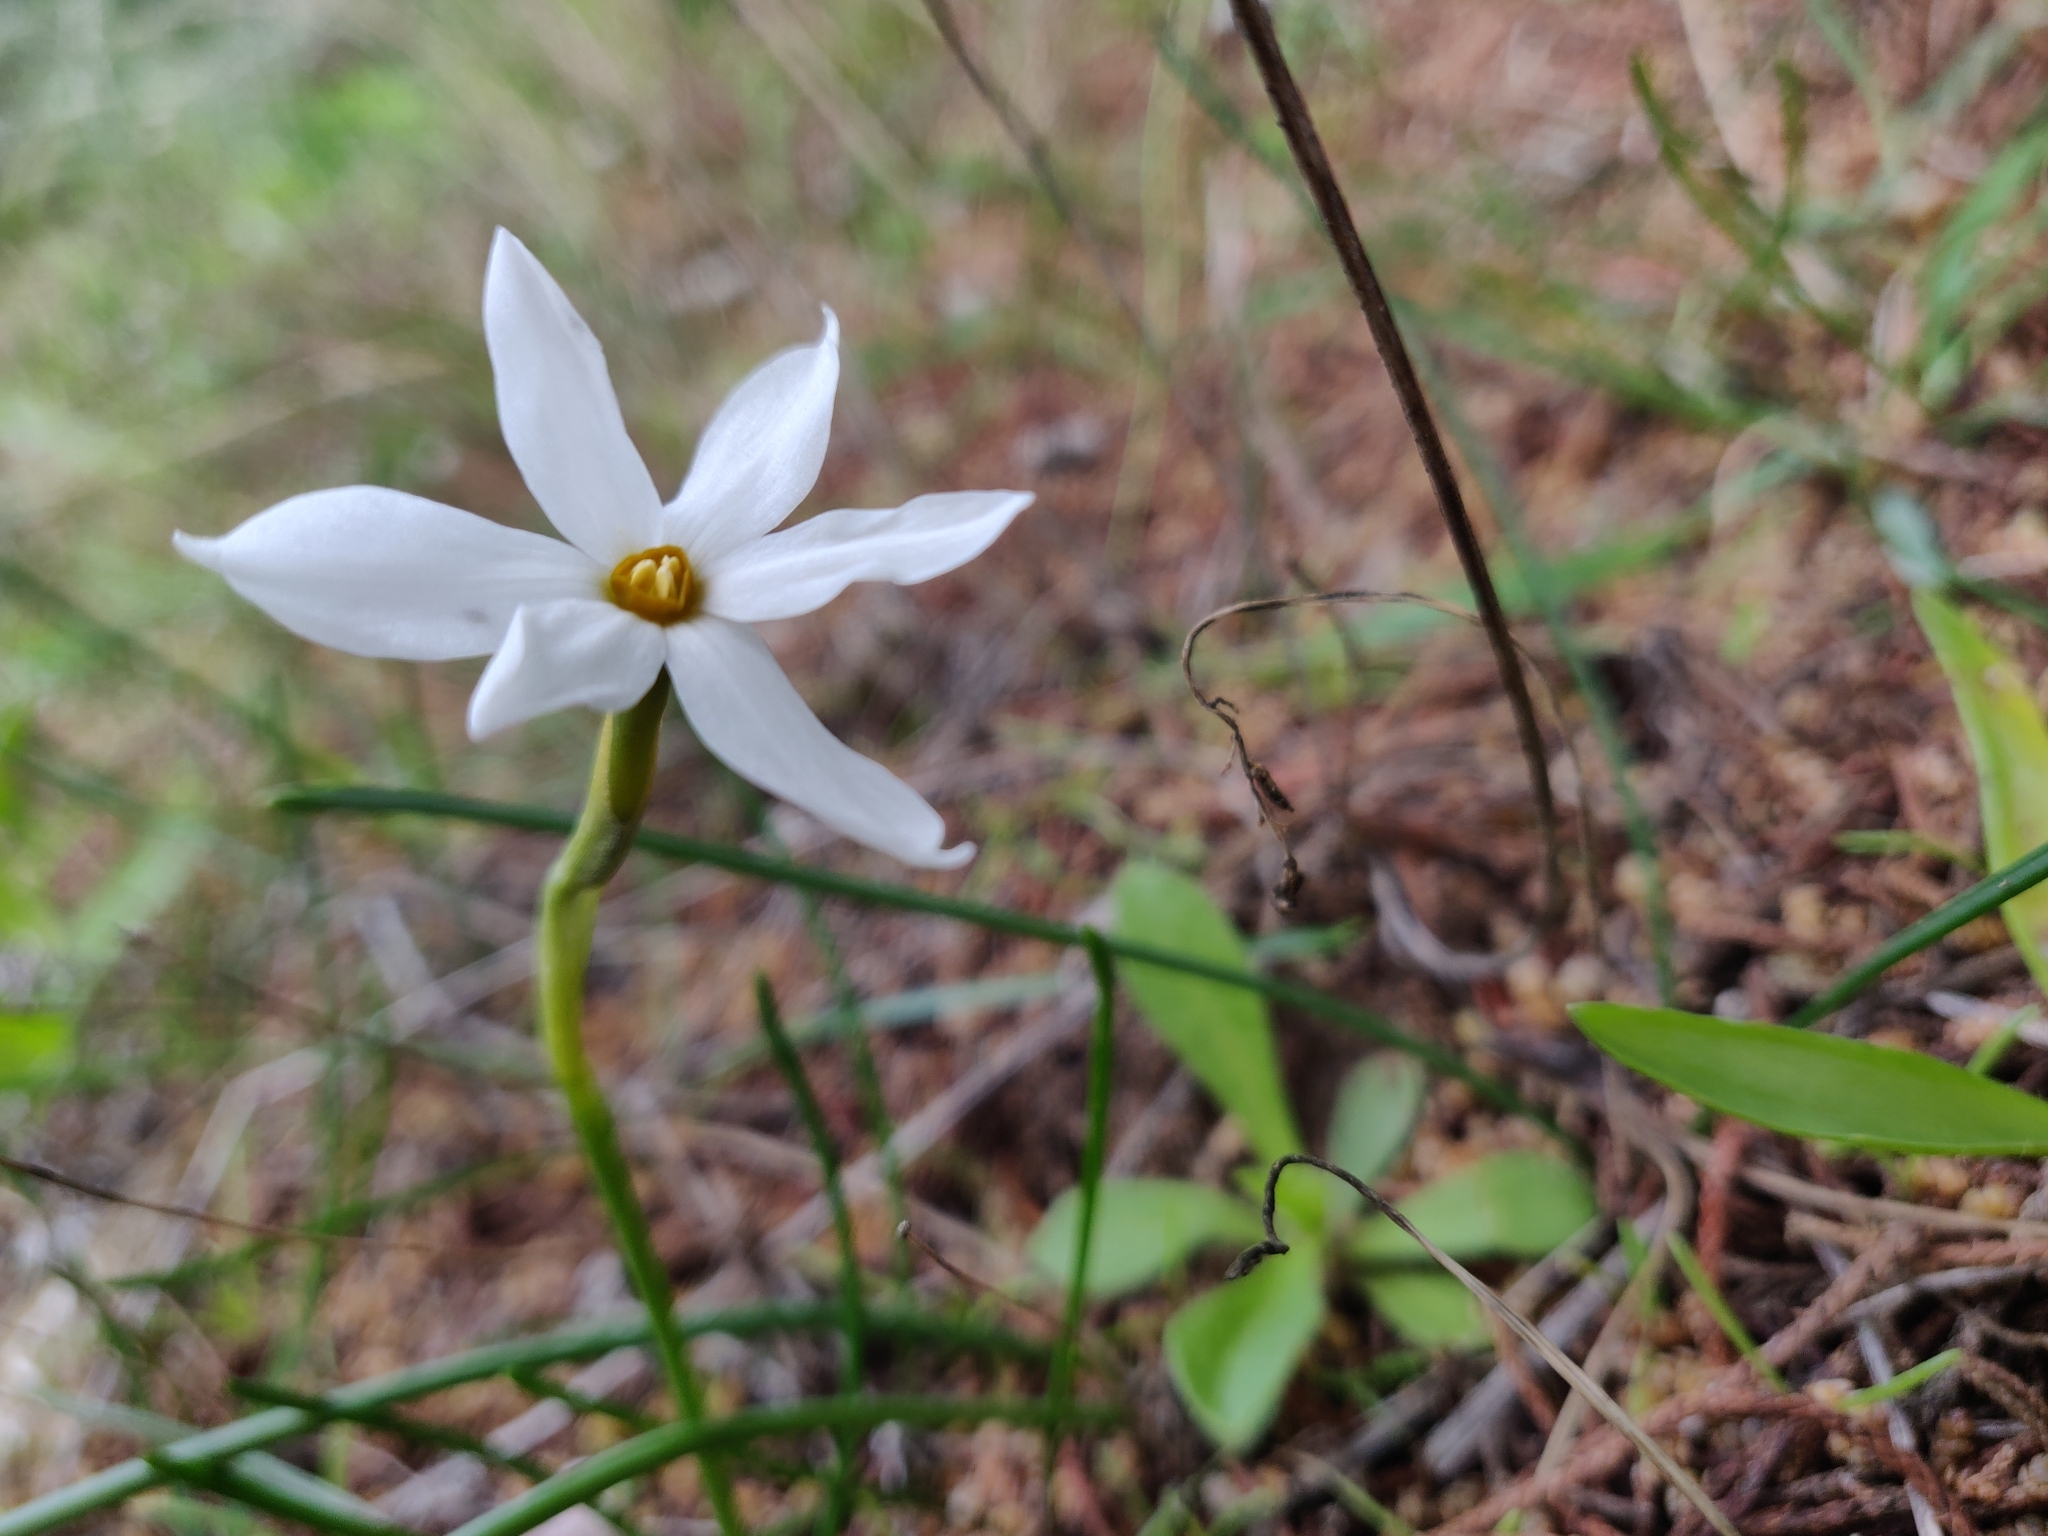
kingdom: Plantae
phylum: Tracheophyta
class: Liliopsida
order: Asparagales
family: Amaryllidaceae
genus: Narcissus
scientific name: Narcissus deficiens
